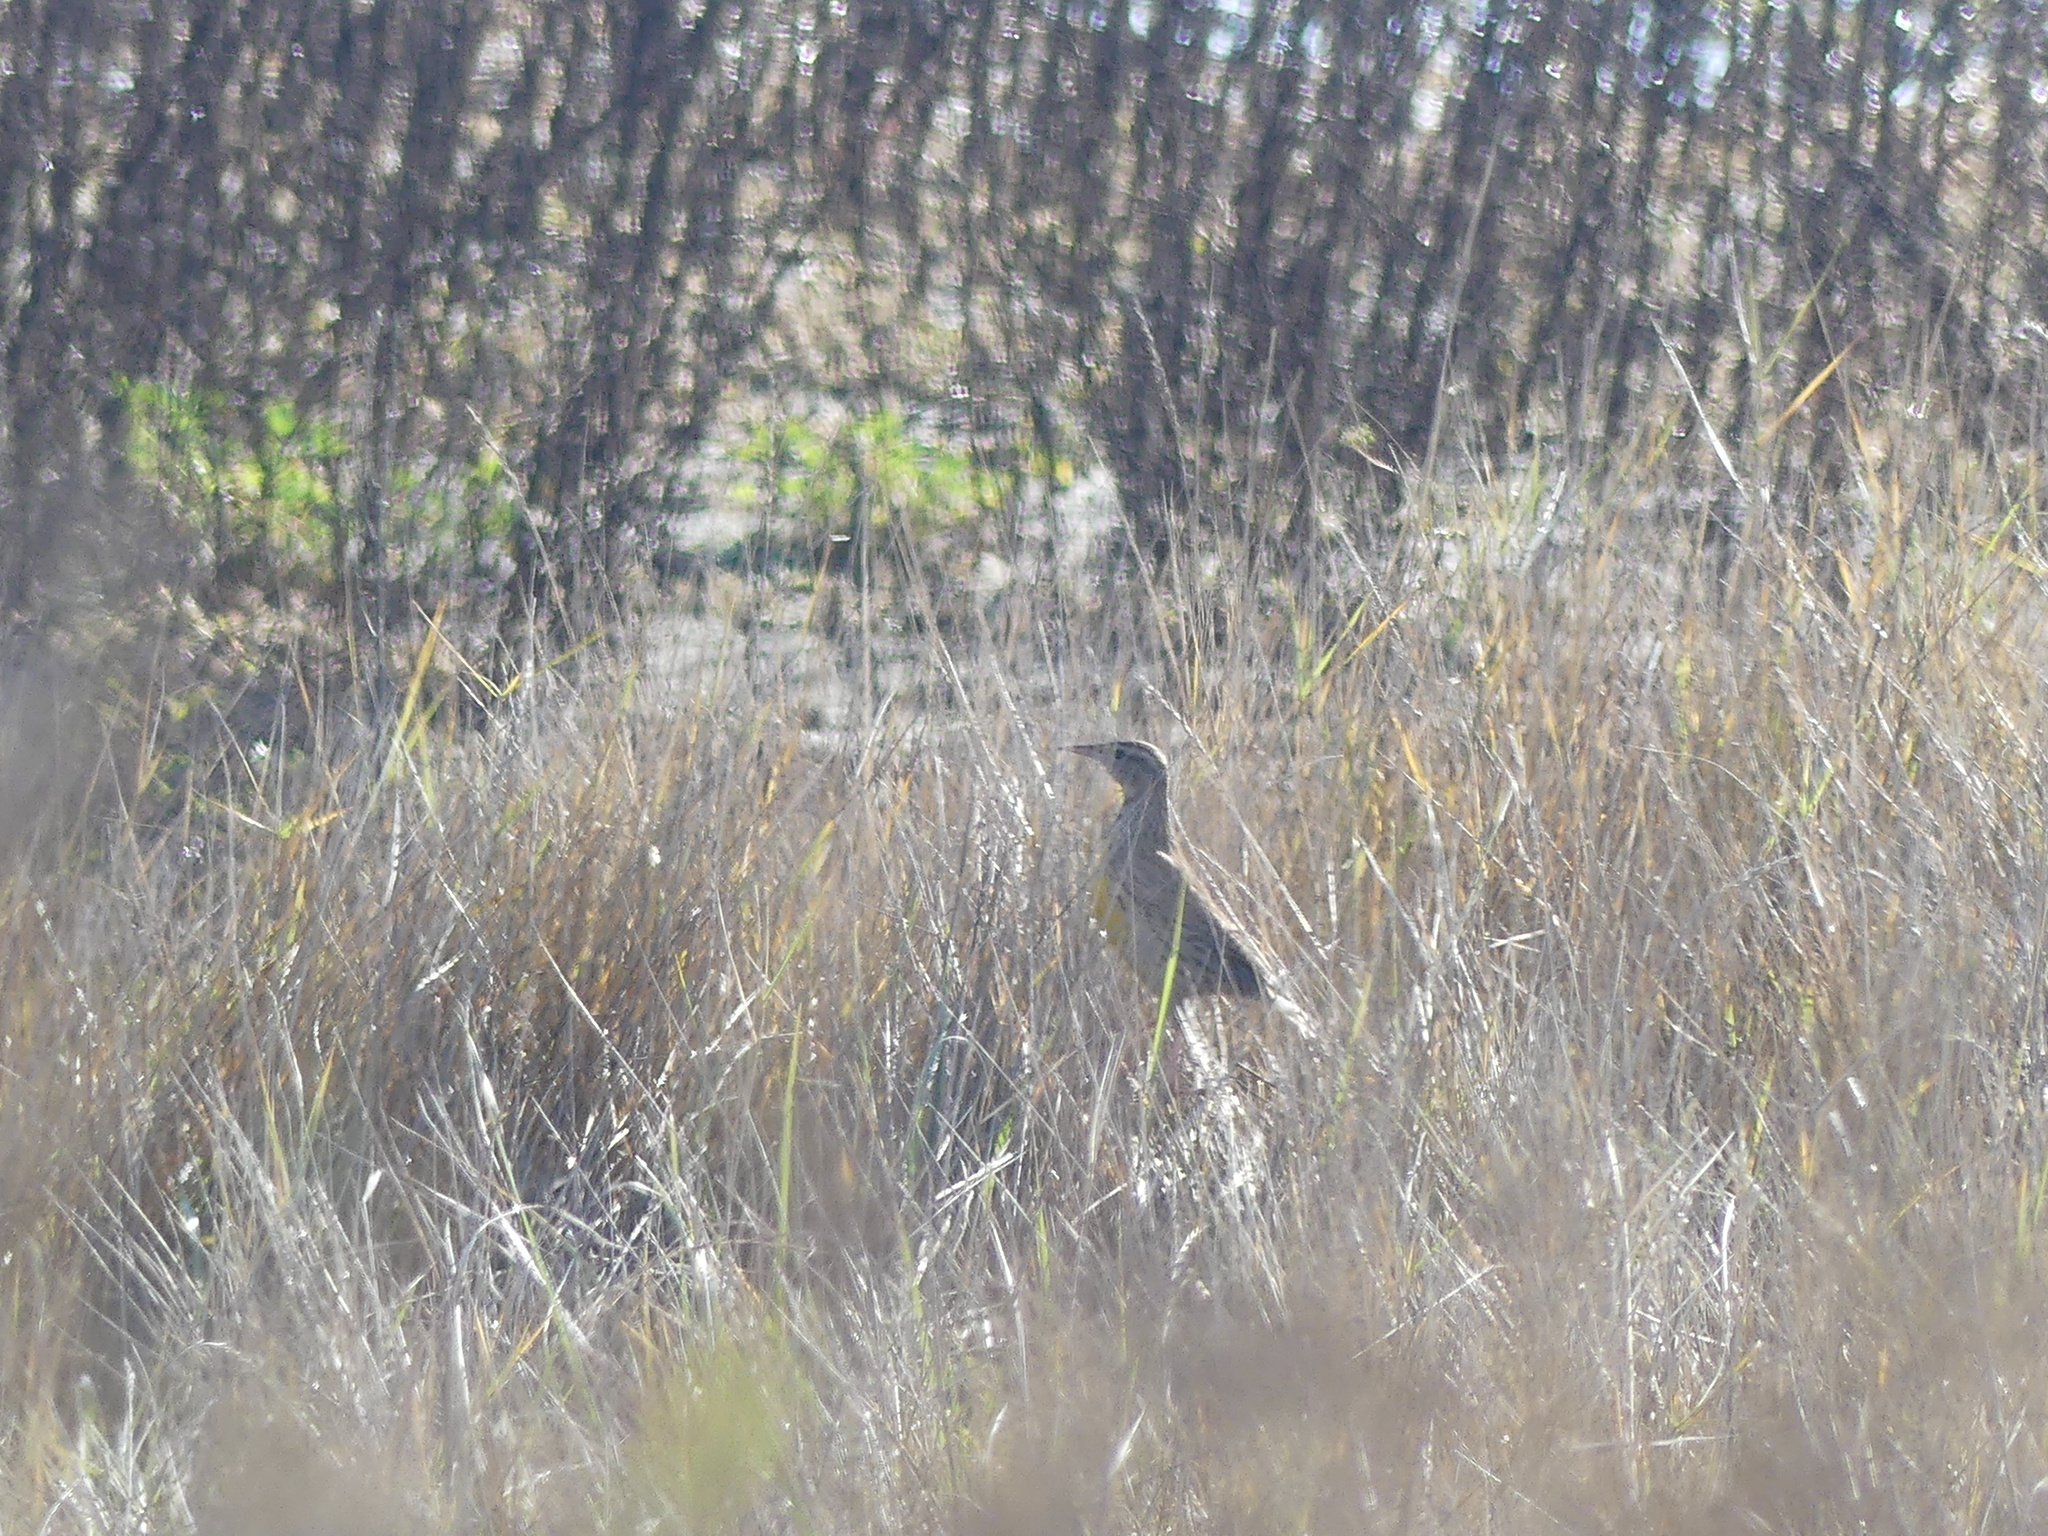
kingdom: Animalia
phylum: Chordata
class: Aves
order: Passeriformes
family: Icteridae
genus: Sturnella
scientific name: Sturnella neglecta
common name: Western meadowlark
